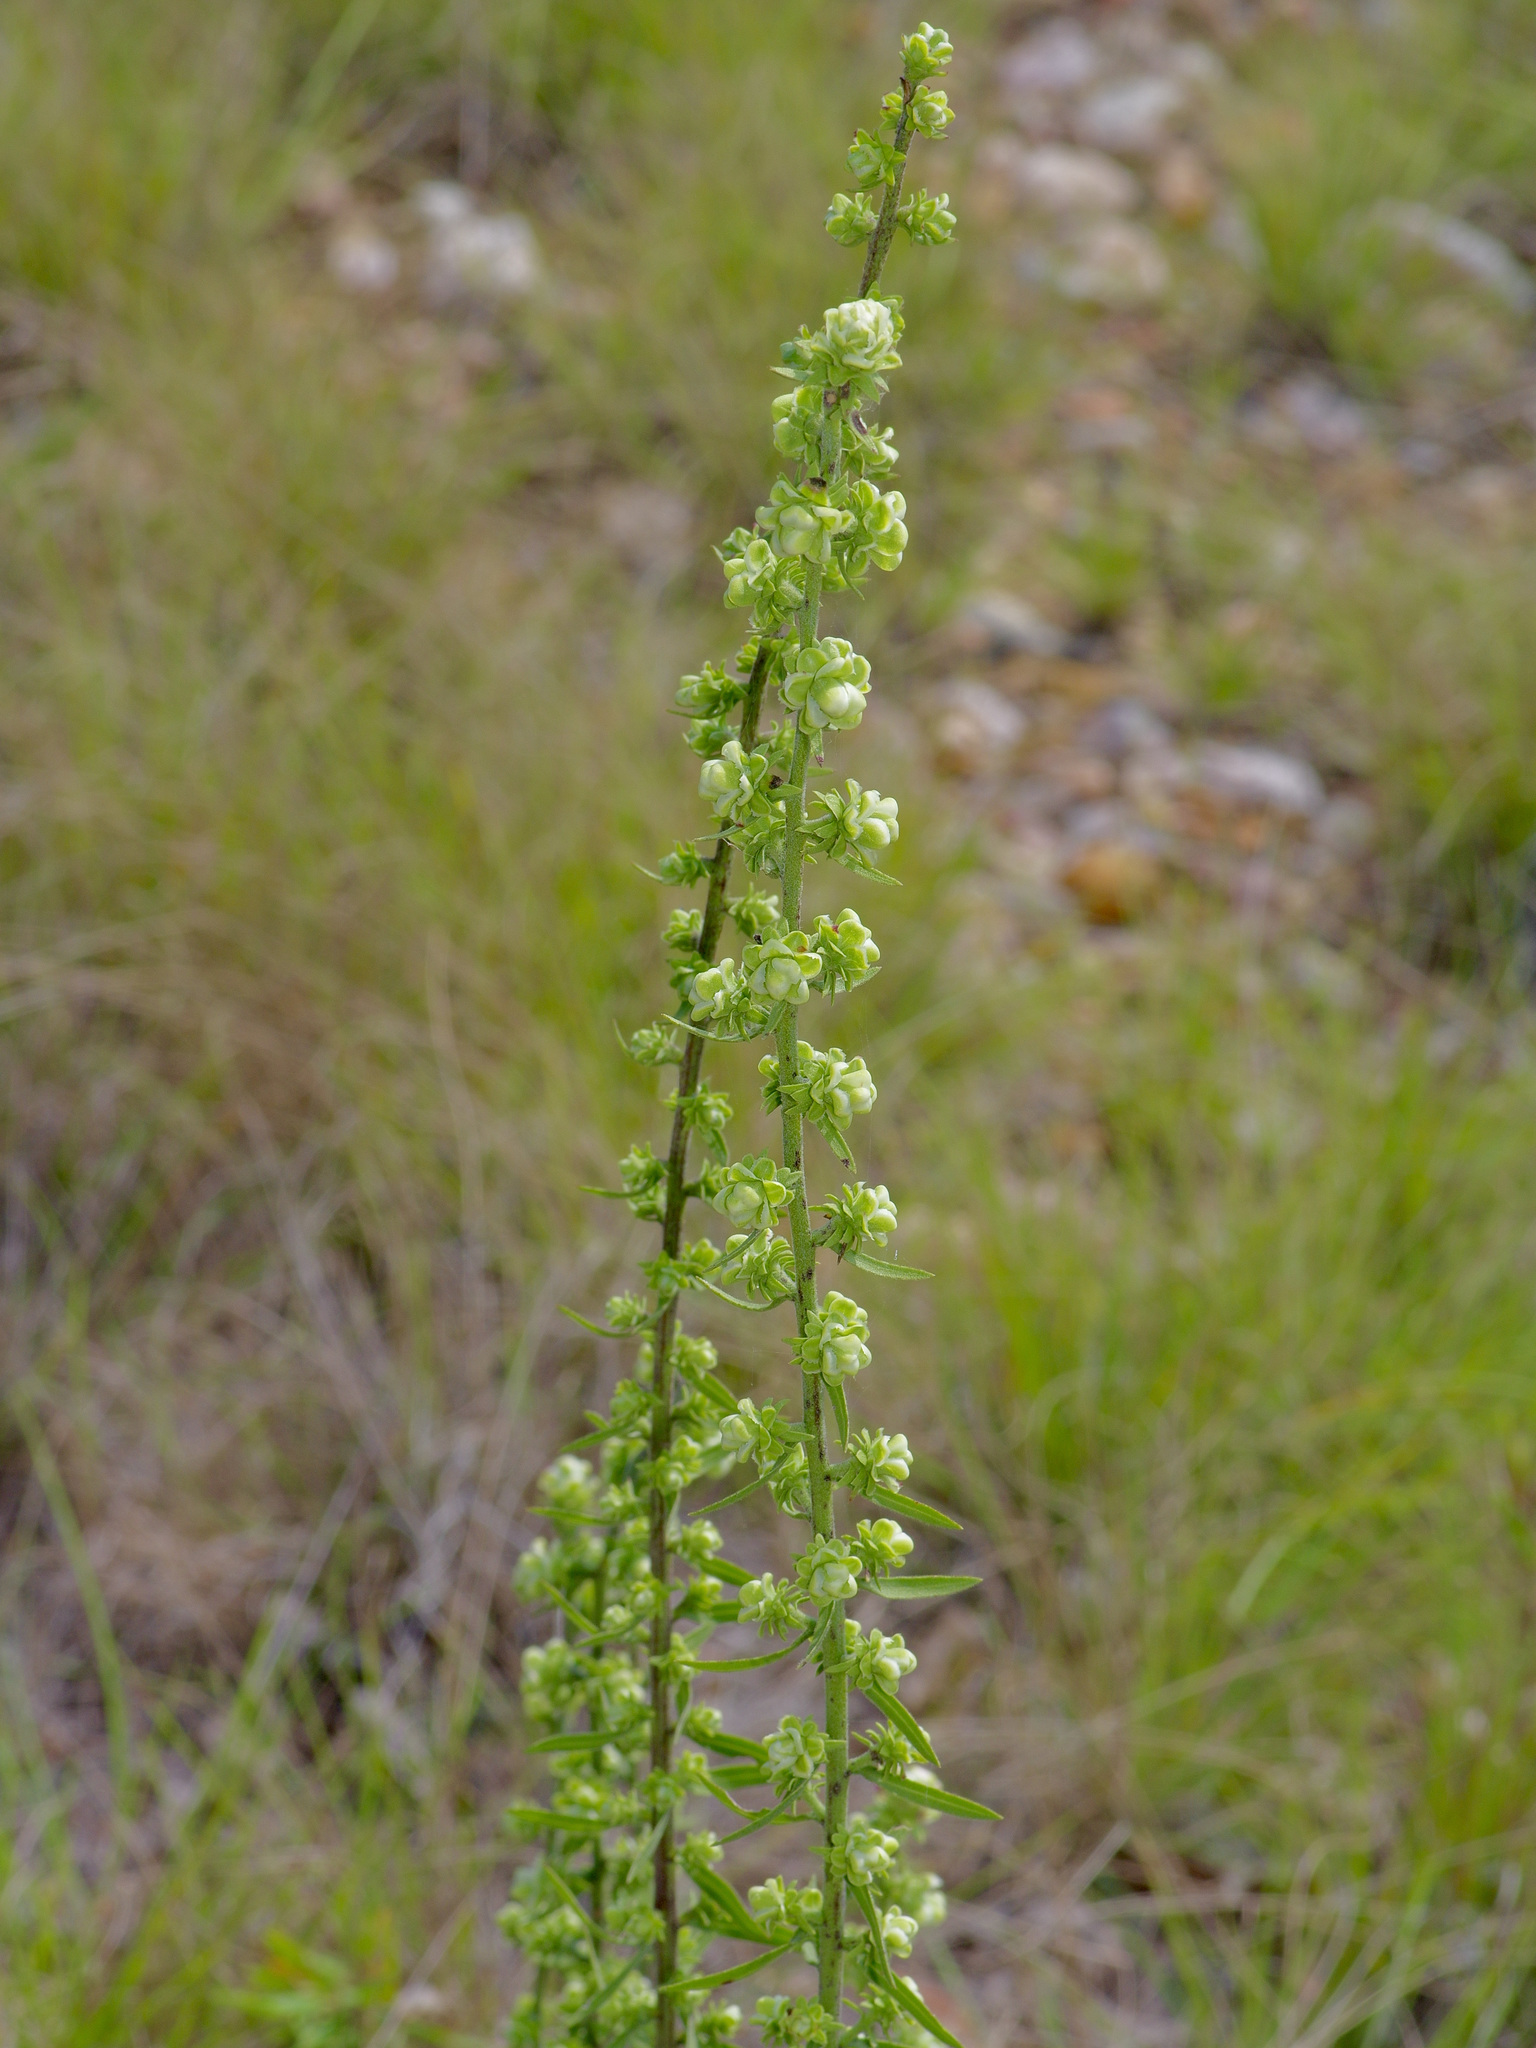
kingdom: Plantae
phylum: Tracheophyta
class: Magnoliopsida
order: Asterales
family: Asteraceae
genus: Liatris
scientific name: Liatris aspera
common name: Lacerate blazing-star
